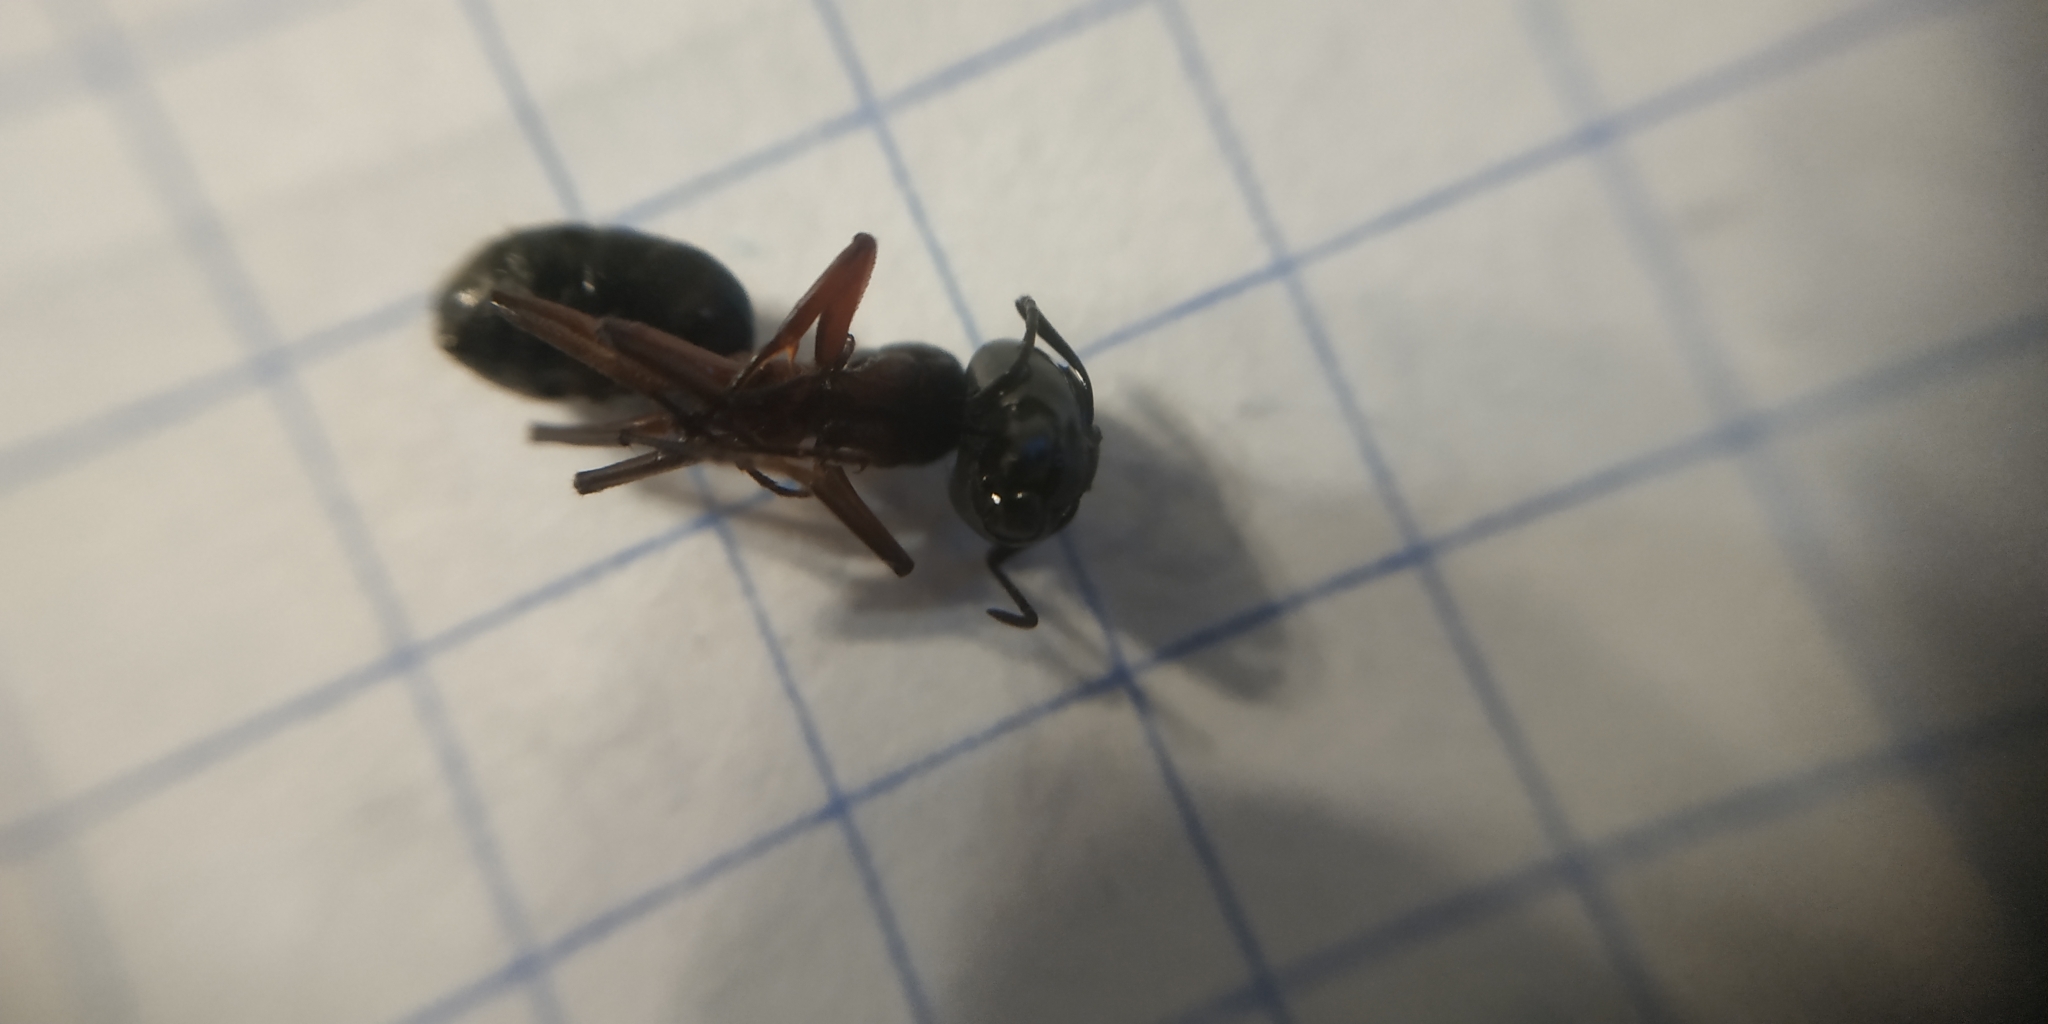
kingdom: Animalia
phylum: Arthropoda
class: Insecta
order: Hymenoptera
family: Formicidae
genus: Camponotus
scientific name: Camponotus herculeanus
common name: Hercules ant
